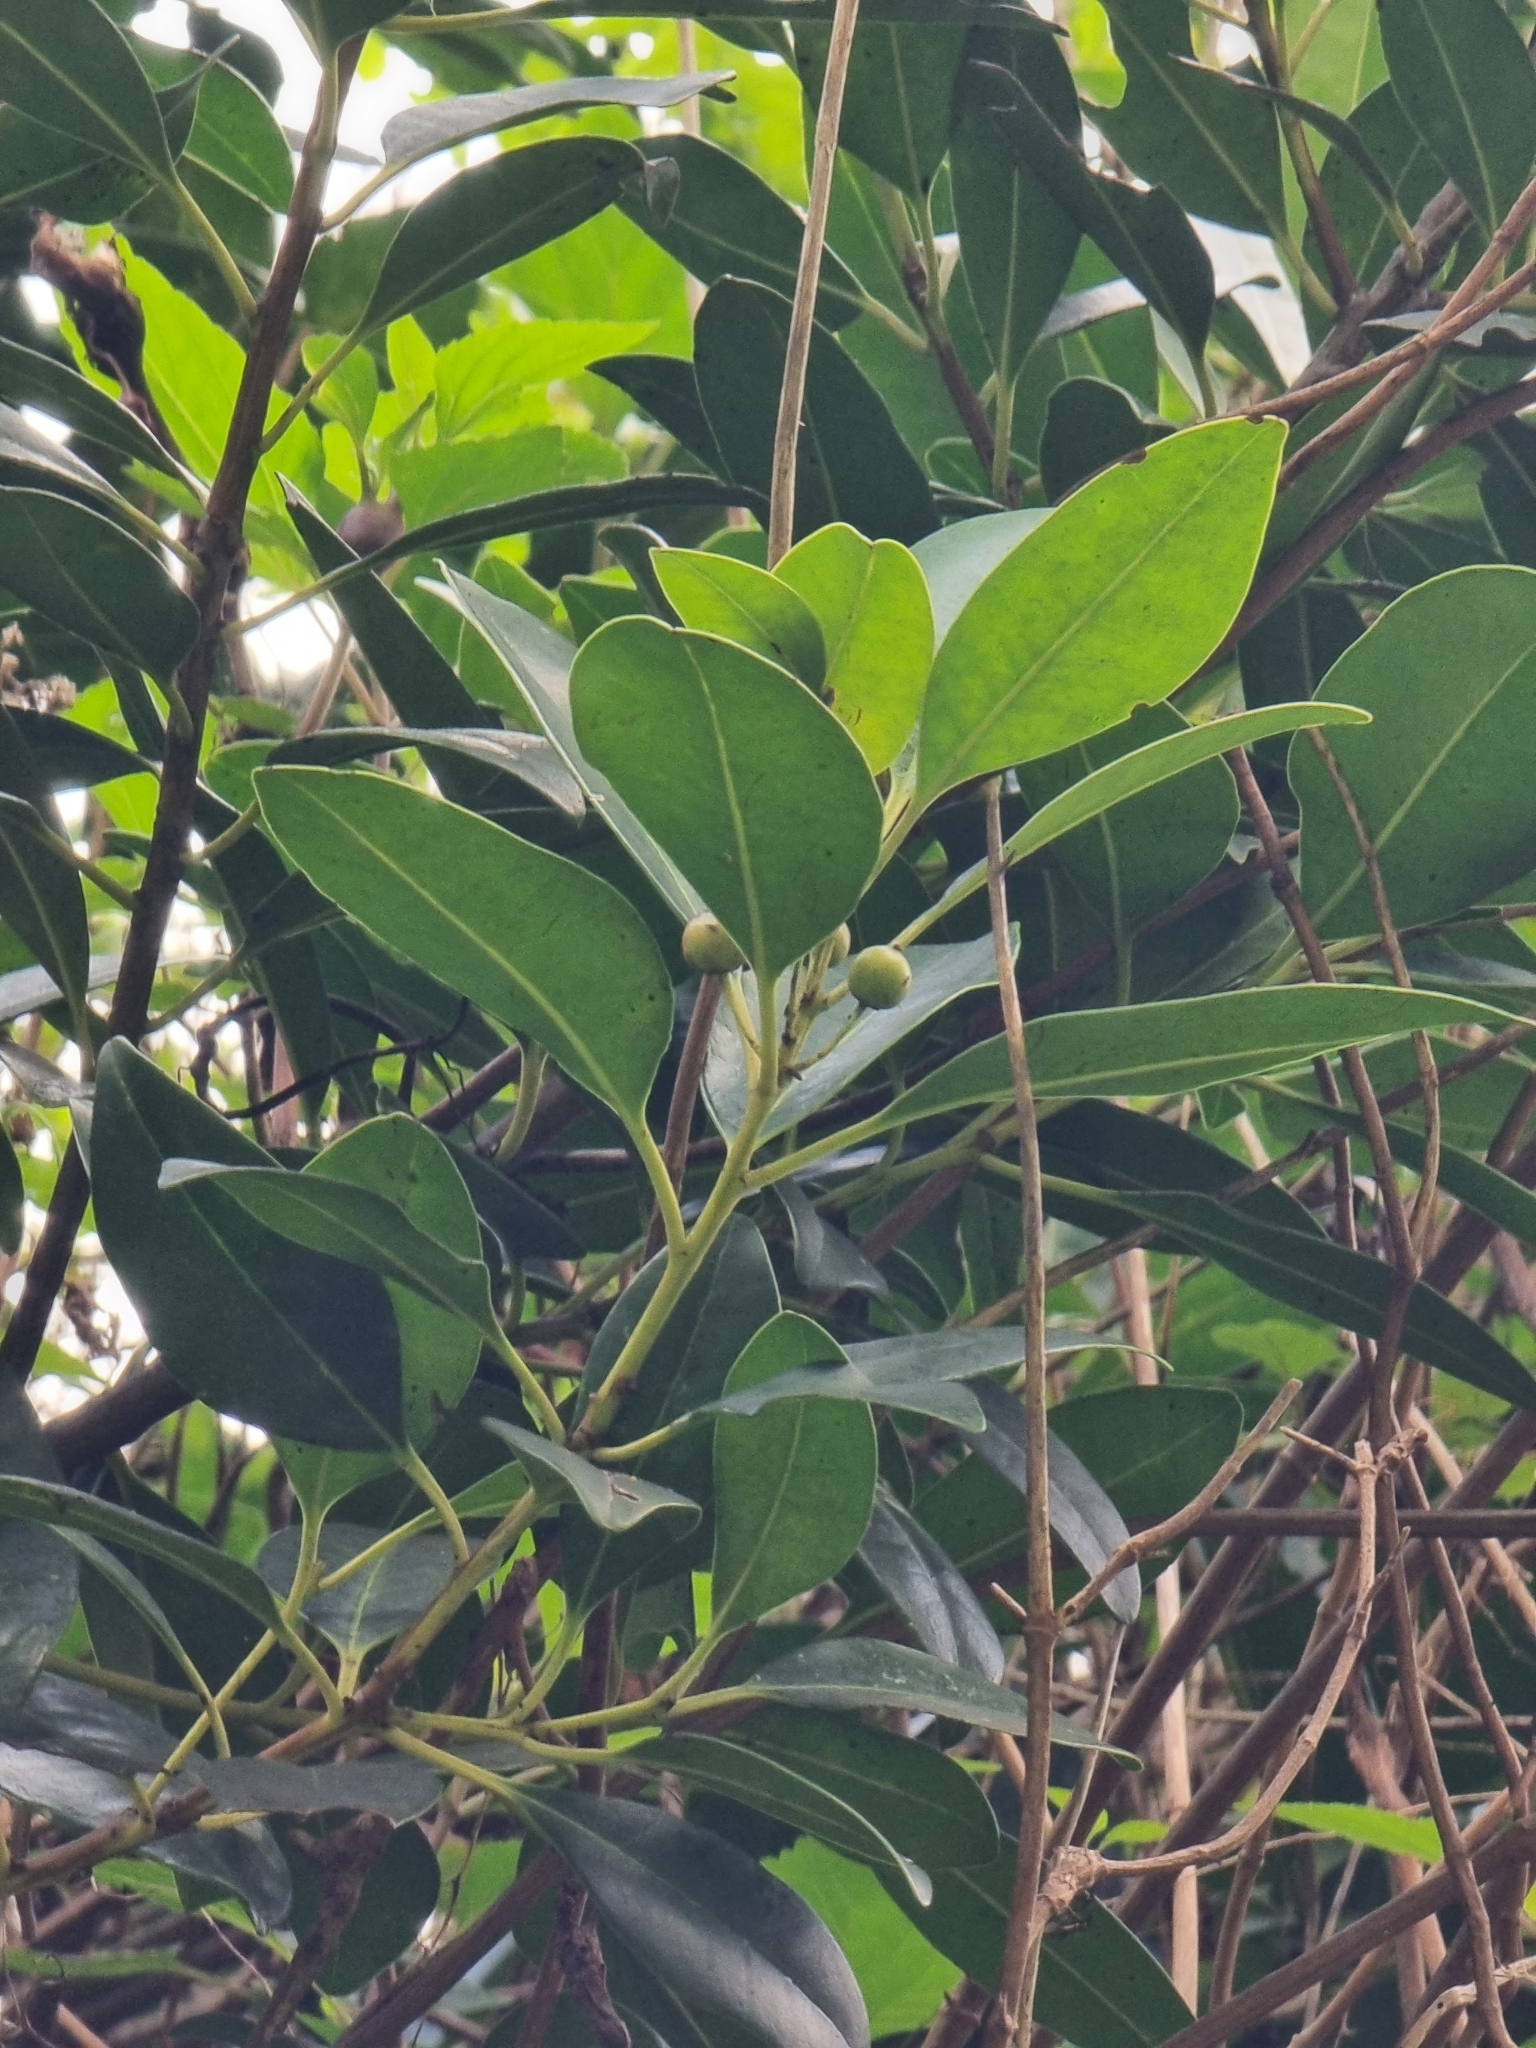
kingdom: Plantae
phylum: Tracheophyta
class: Magnoliopsida
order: Aquifoliales
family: Aquifoliaceae
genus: Ilex
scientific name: Ilex canariensis
